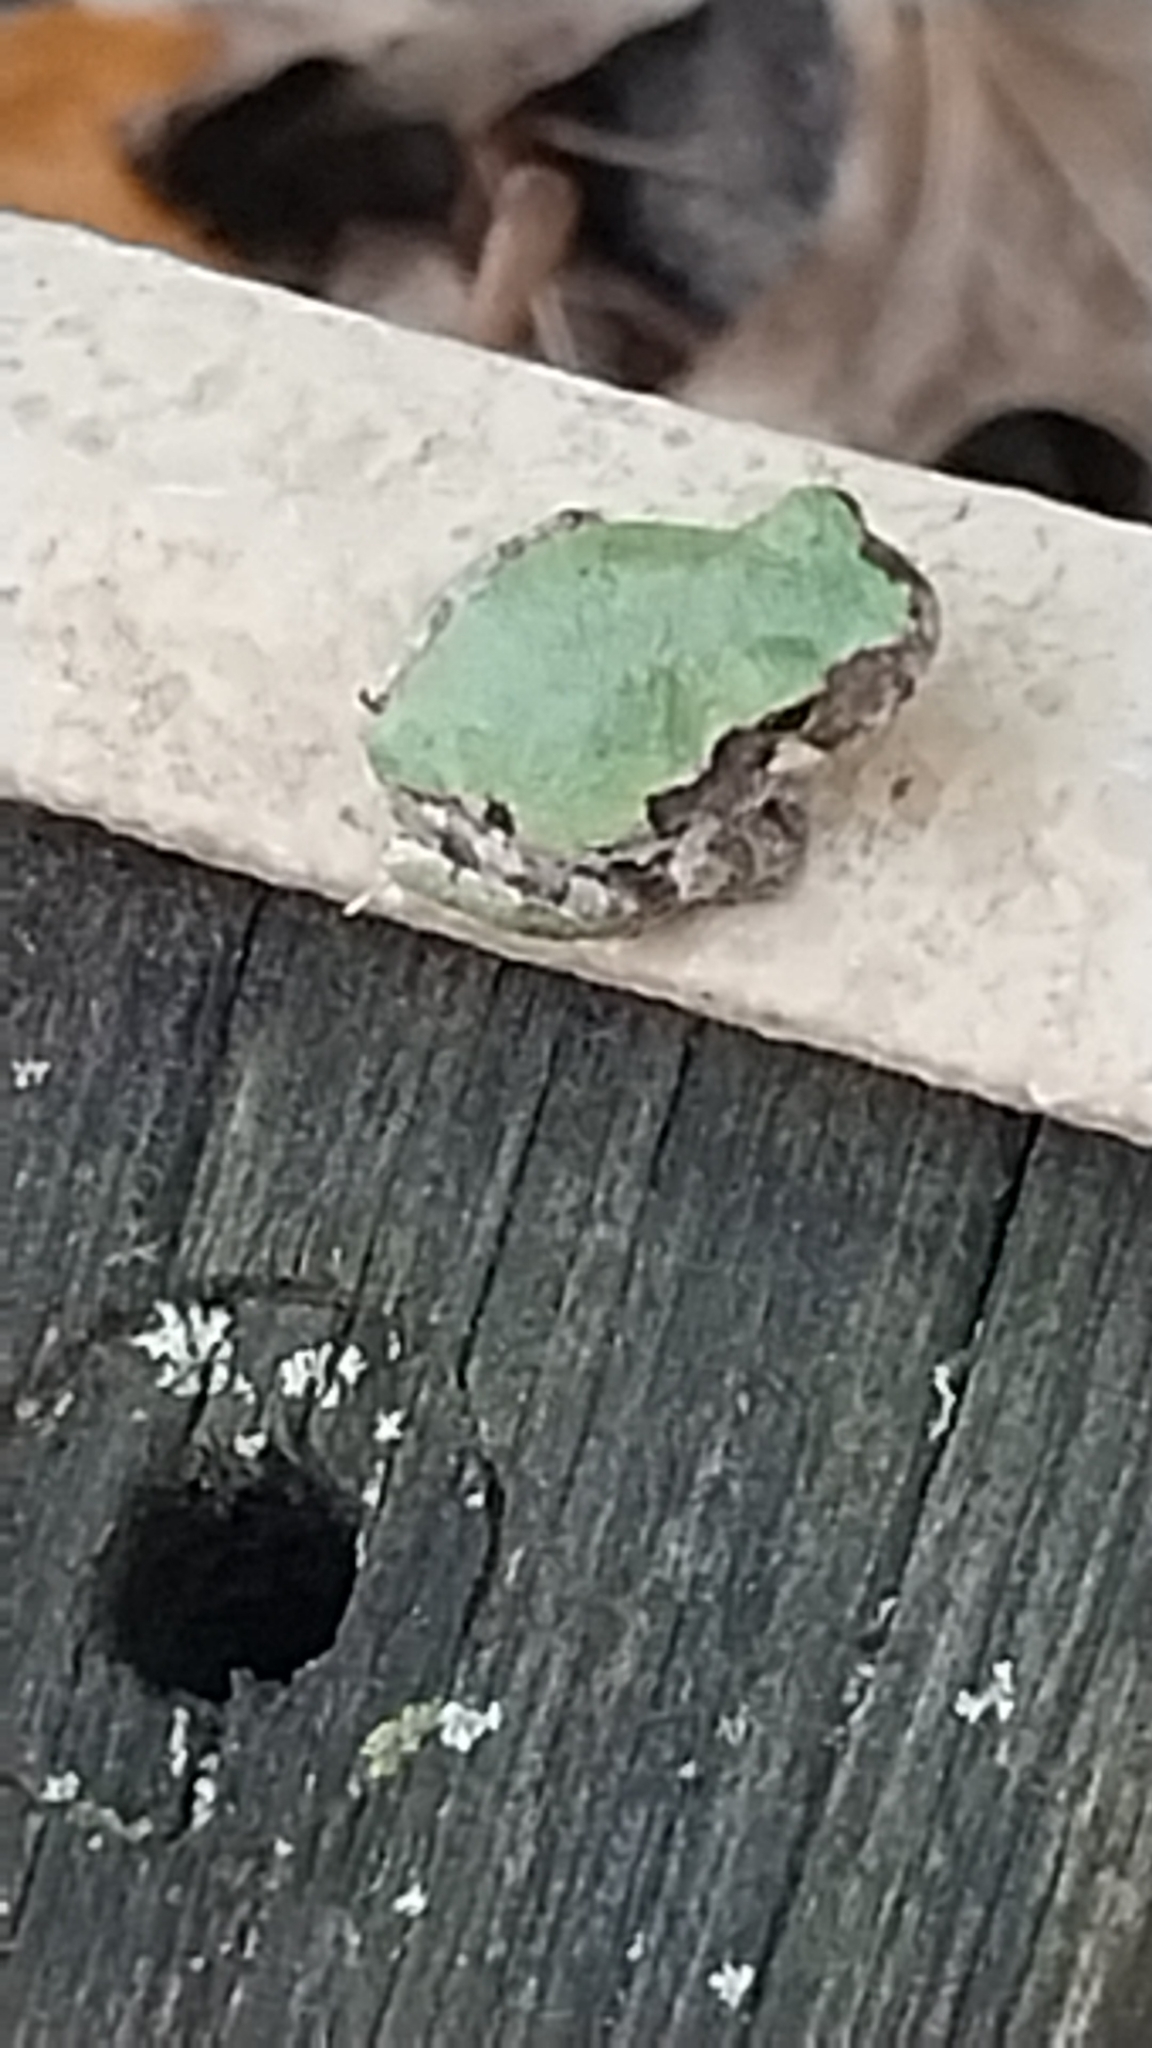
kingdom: Animalia
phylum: Chordata
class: Amphibia
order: Anura
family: Hylidae
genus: Hyla
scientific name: Hyla
